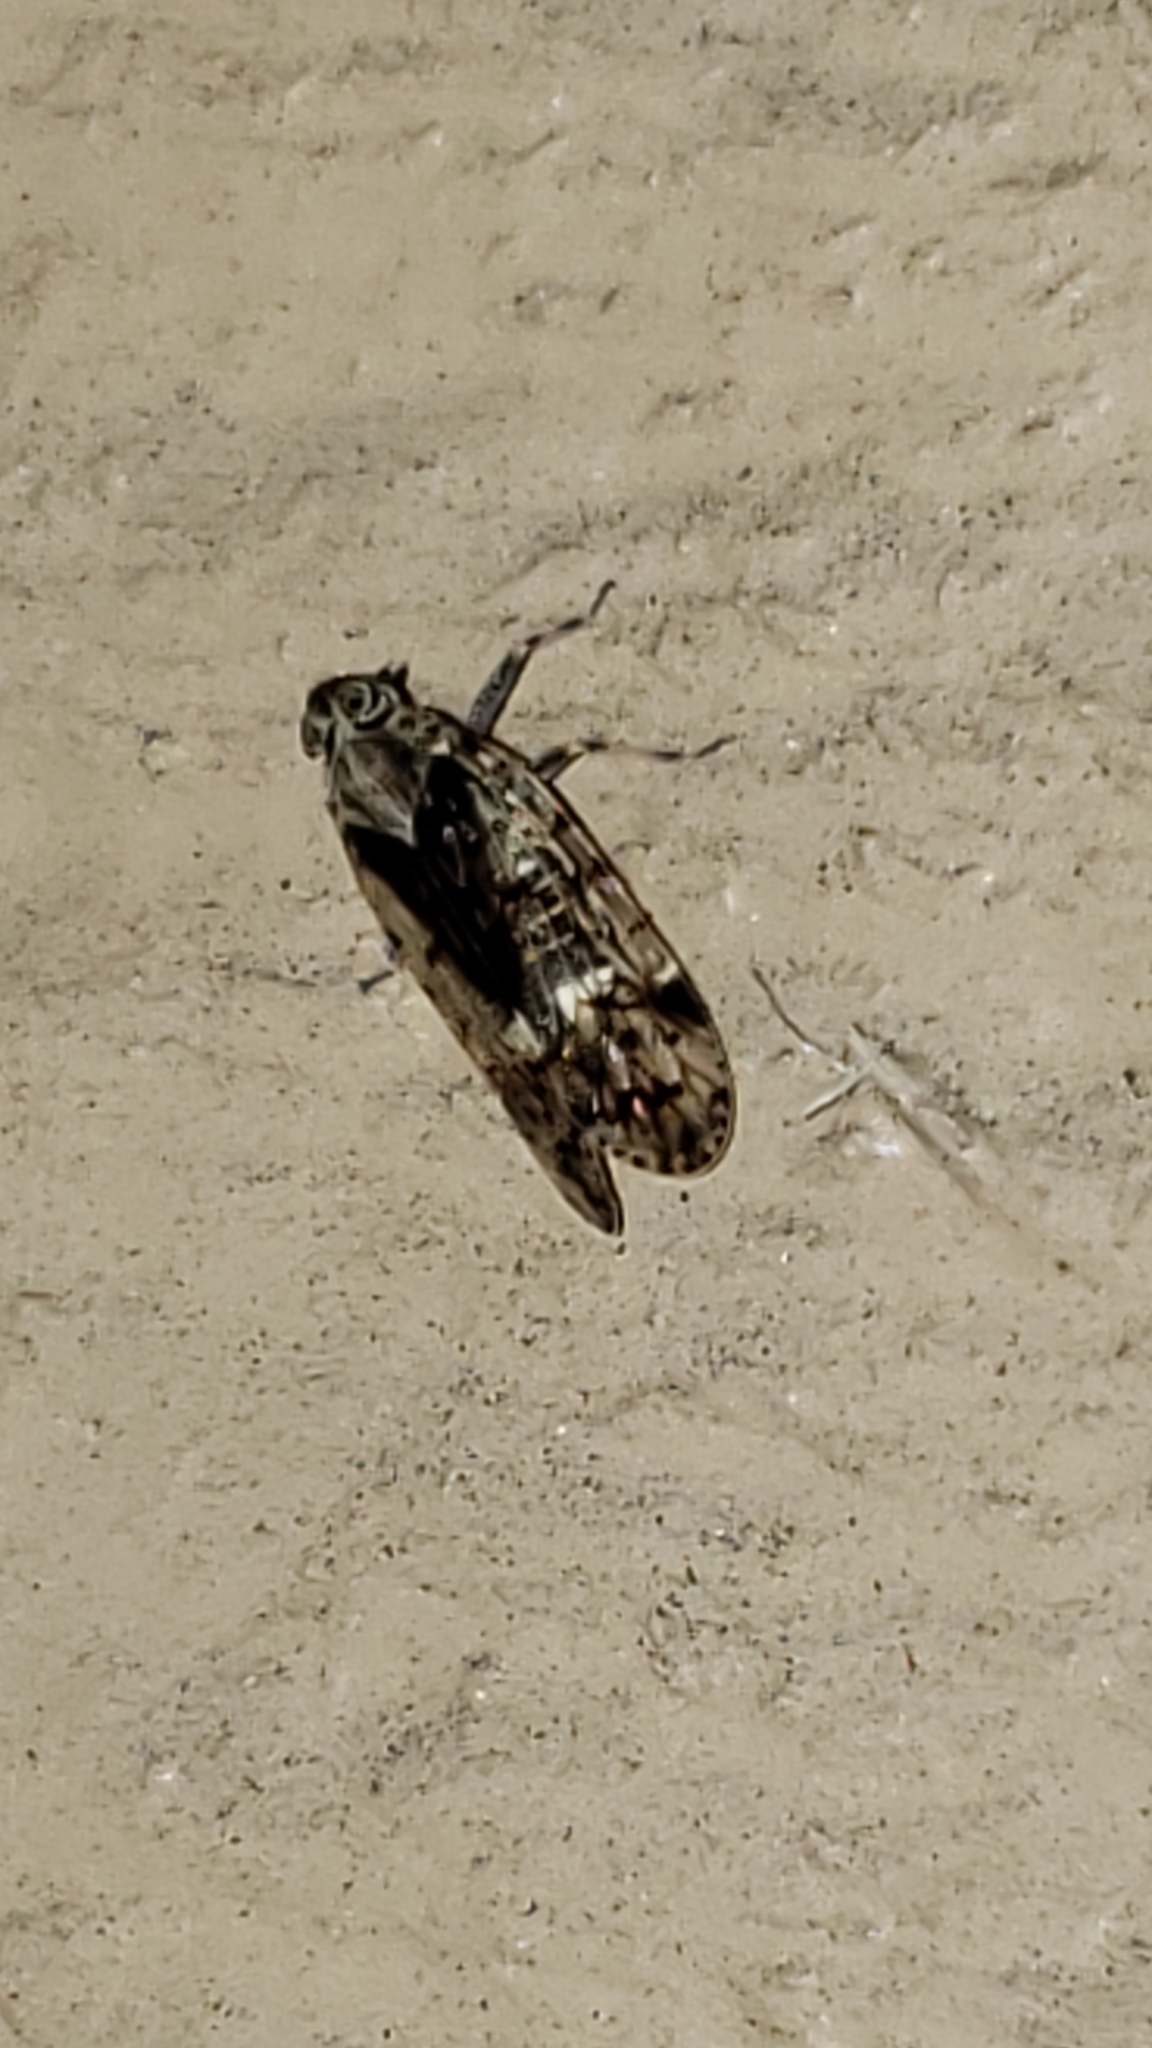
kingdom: Animalia
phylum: Arthropoda
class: Insecta
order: Hemiptera
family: Cixiidae
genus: Melanoliarus
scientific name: Melanoliarus placitus
